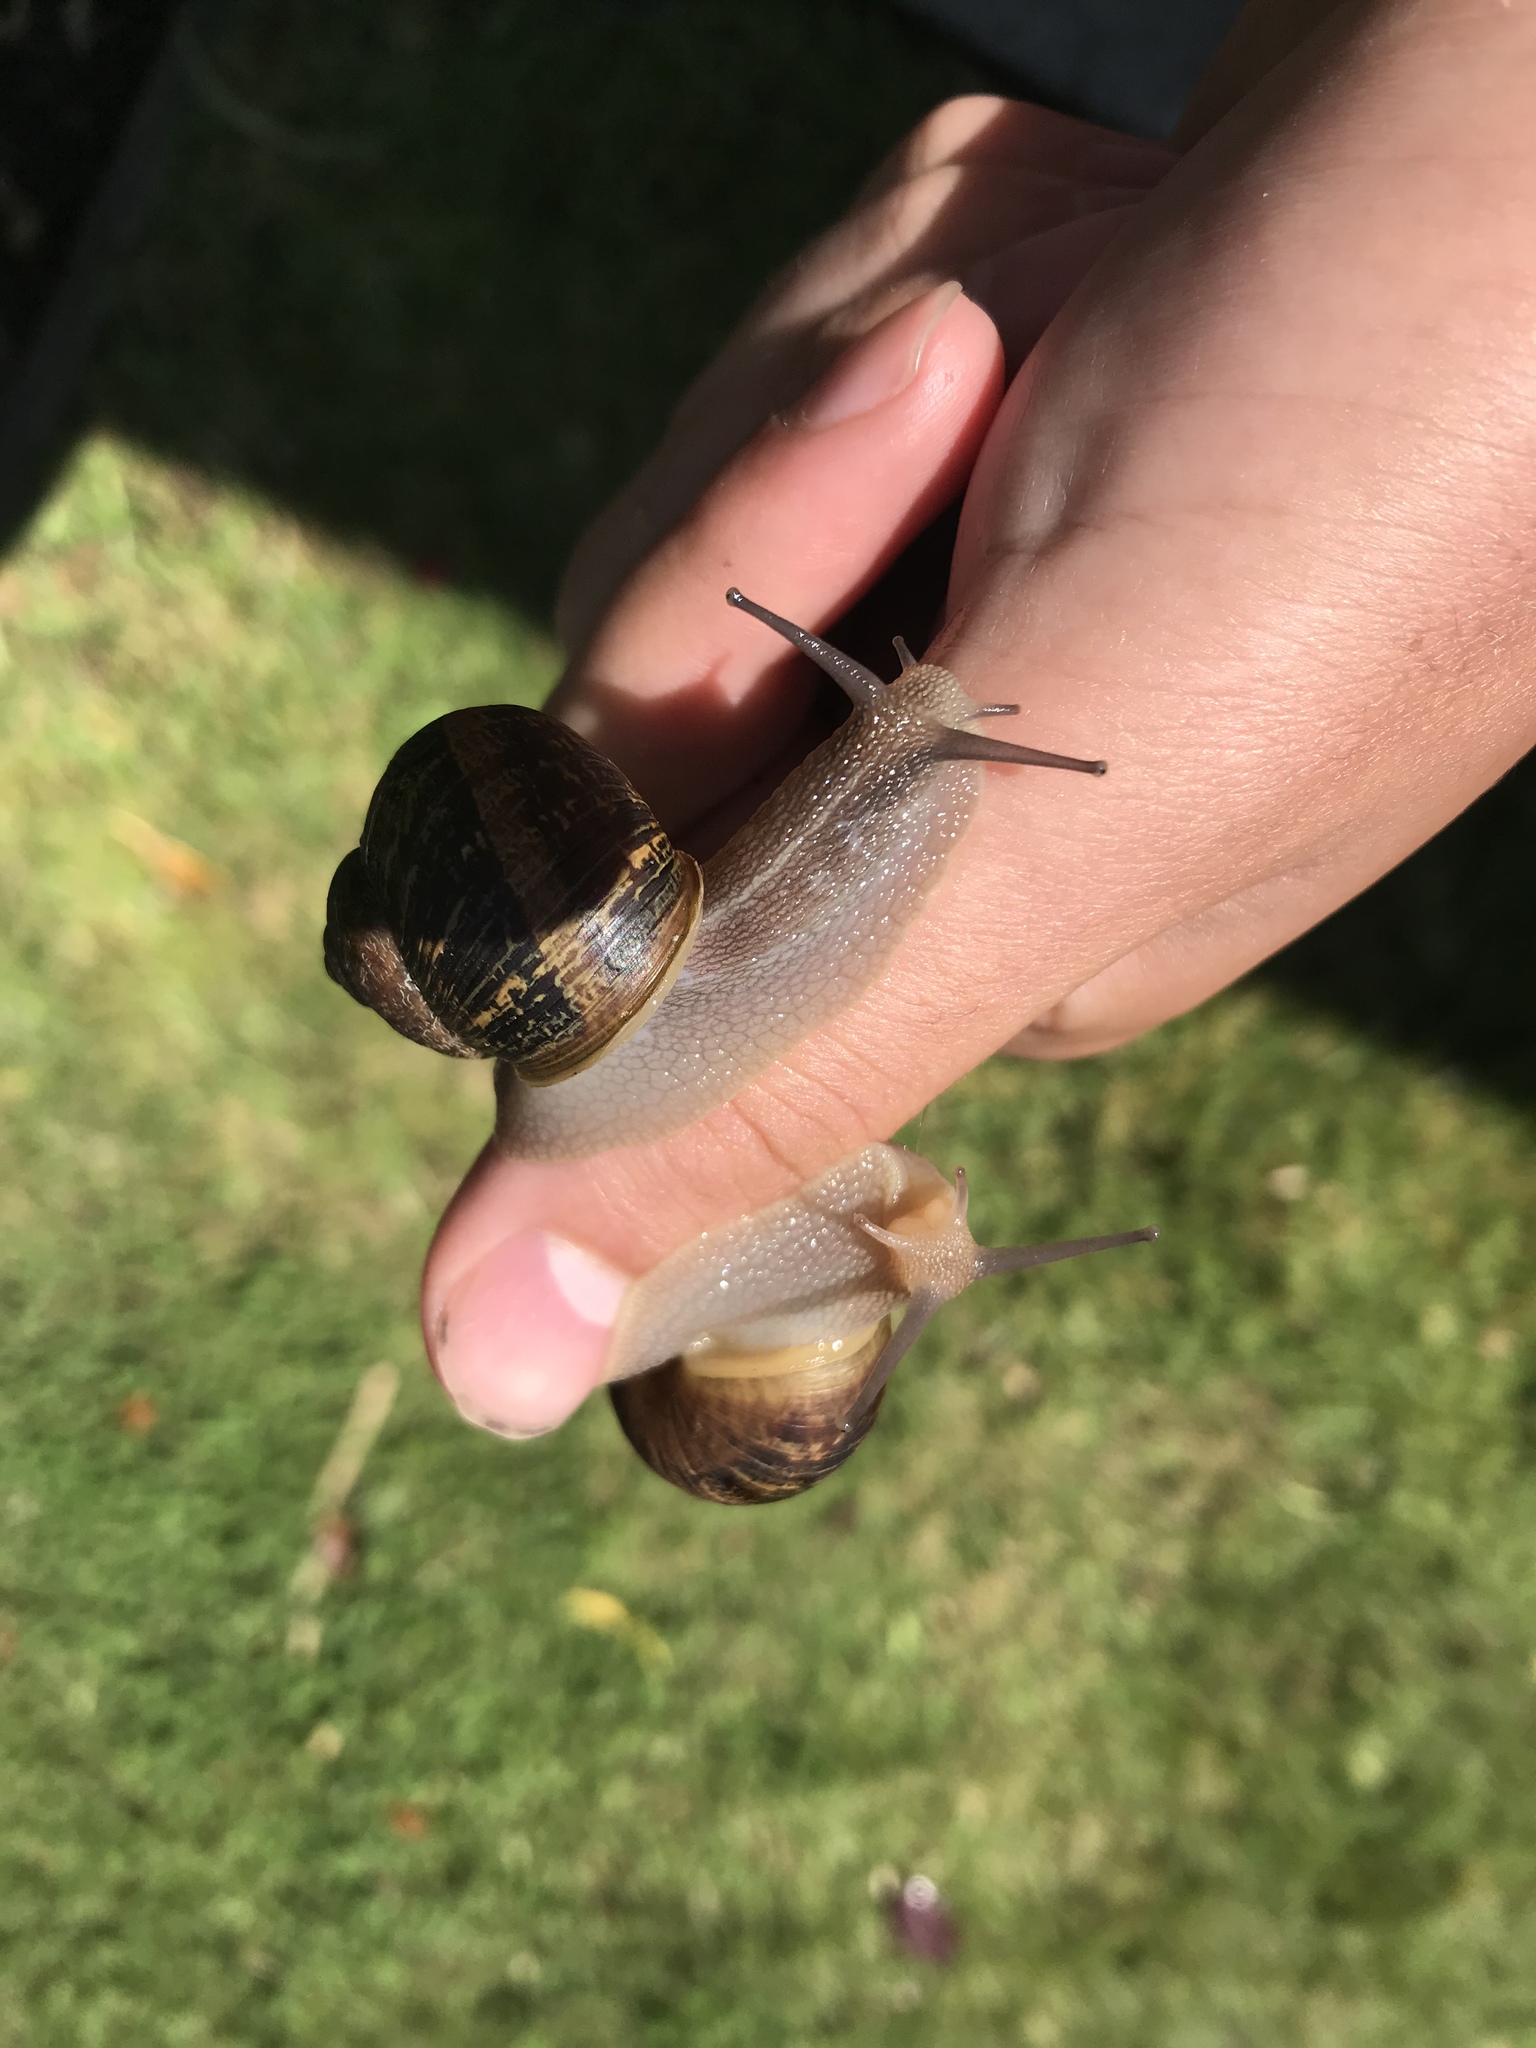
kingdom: Animalia
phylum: Mollusca
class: Gastropoda
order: Stylommatophora
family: Helicidae
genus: Cornu
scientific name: Cornu aspersum
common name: Brown garden snail
